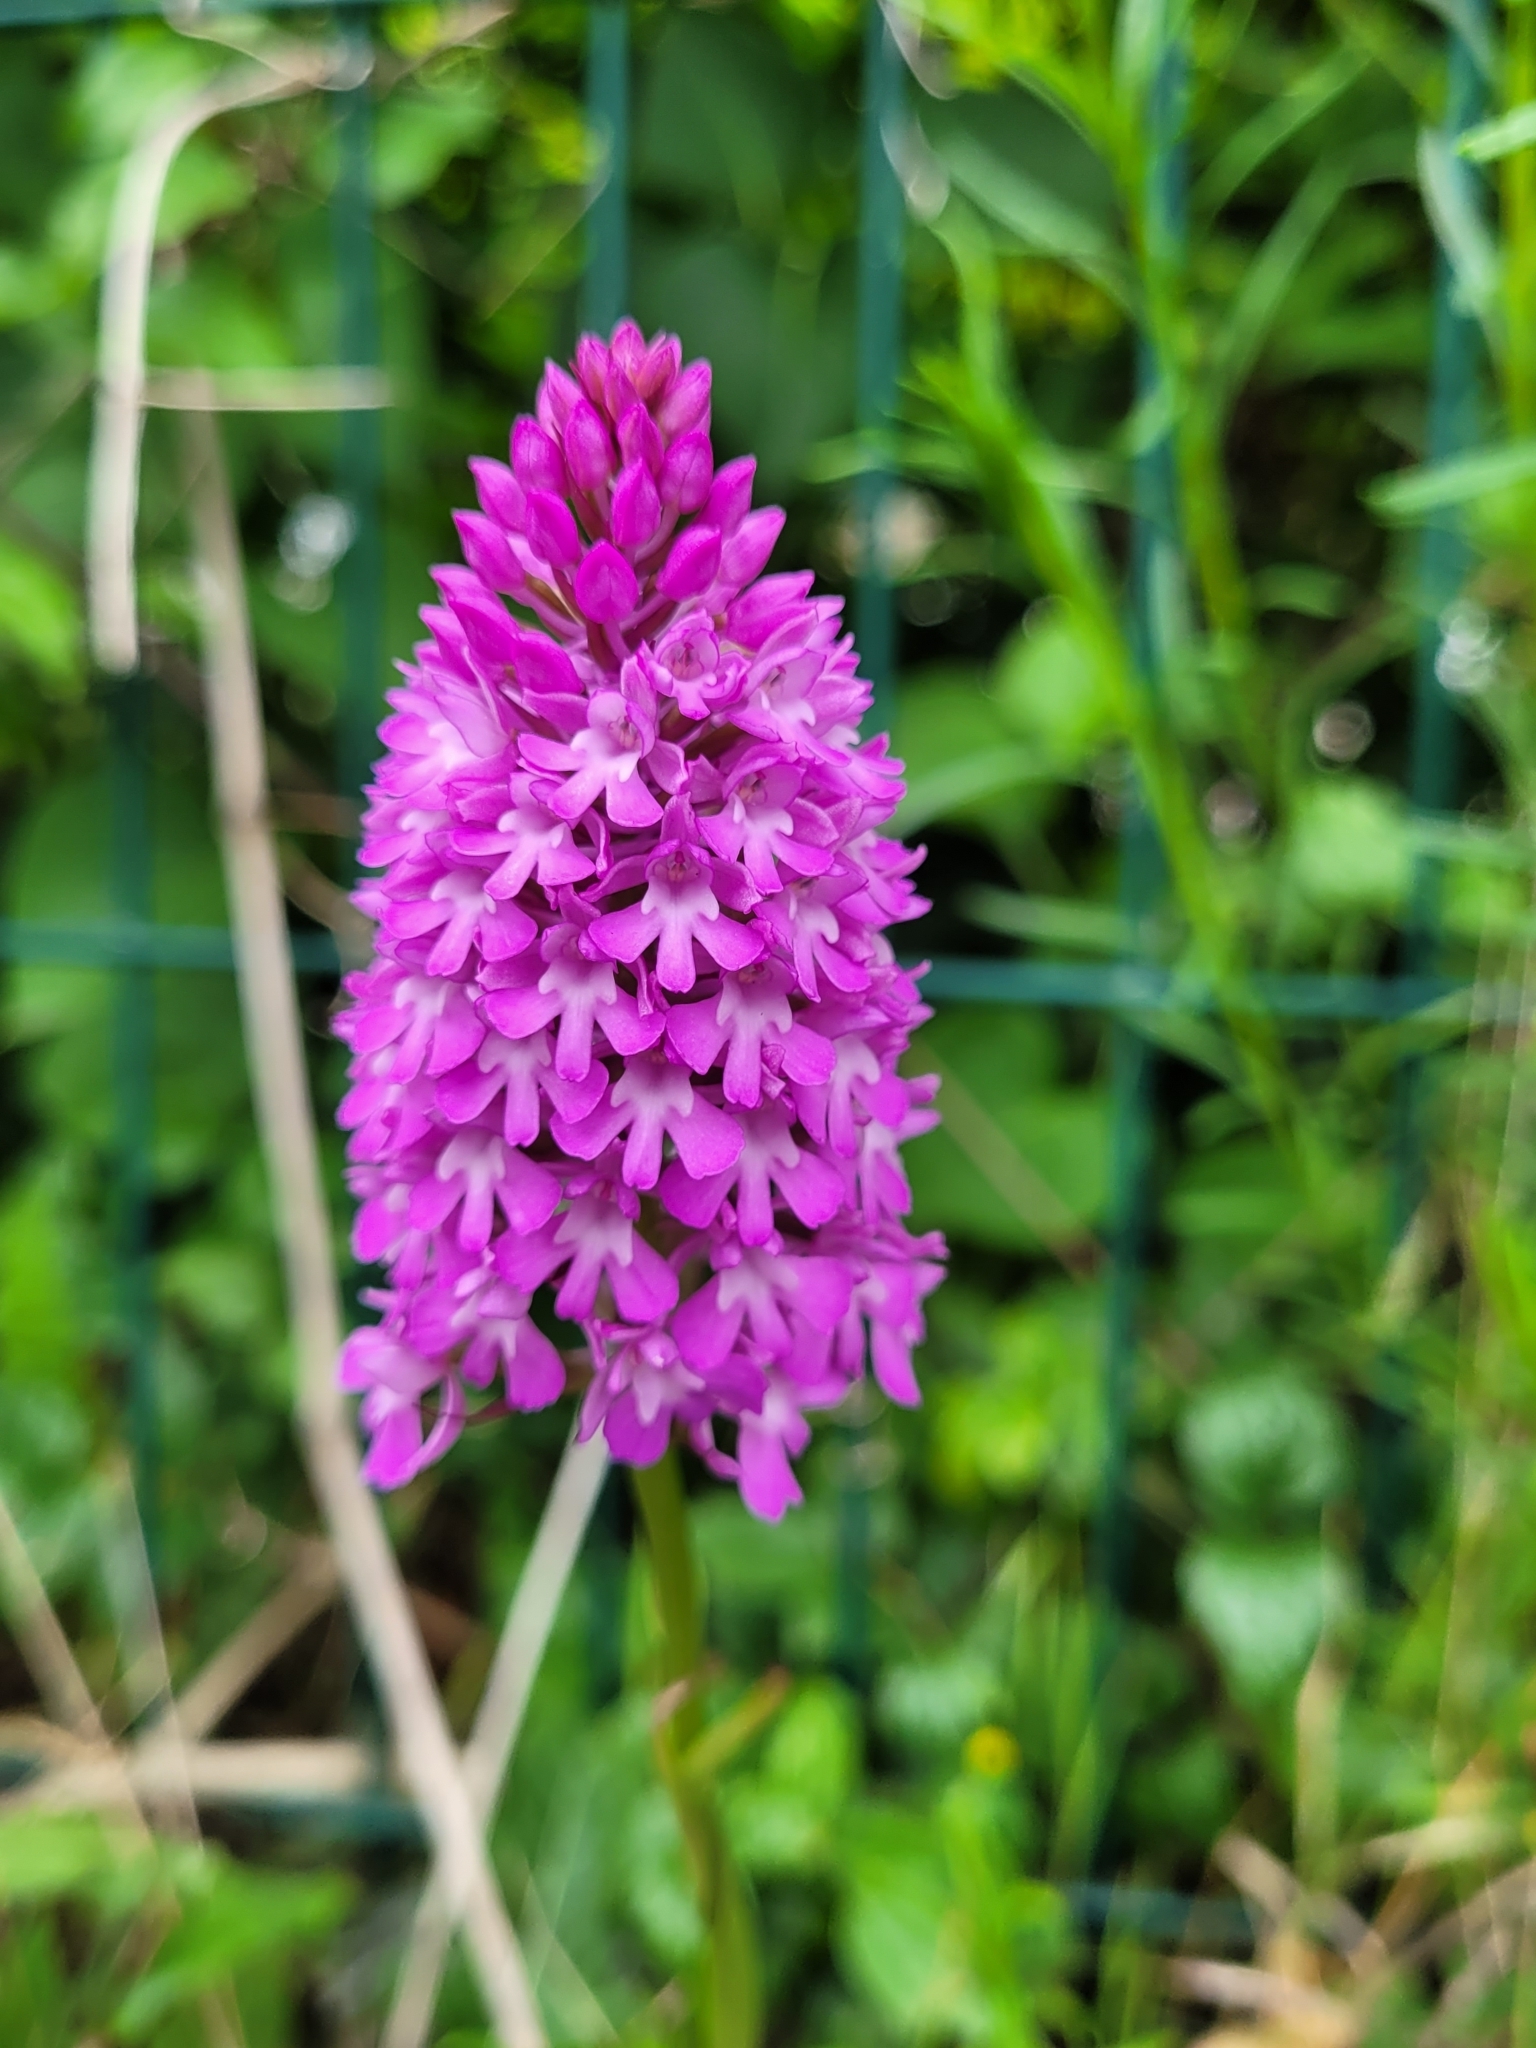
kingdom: Plantae
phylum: Tracheophyta
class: Liliopsida
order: Asparagales
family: Orchidaceae
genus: Anacamptis
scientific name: Anacamptis pyramidalis
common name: Pyramidal orchid
